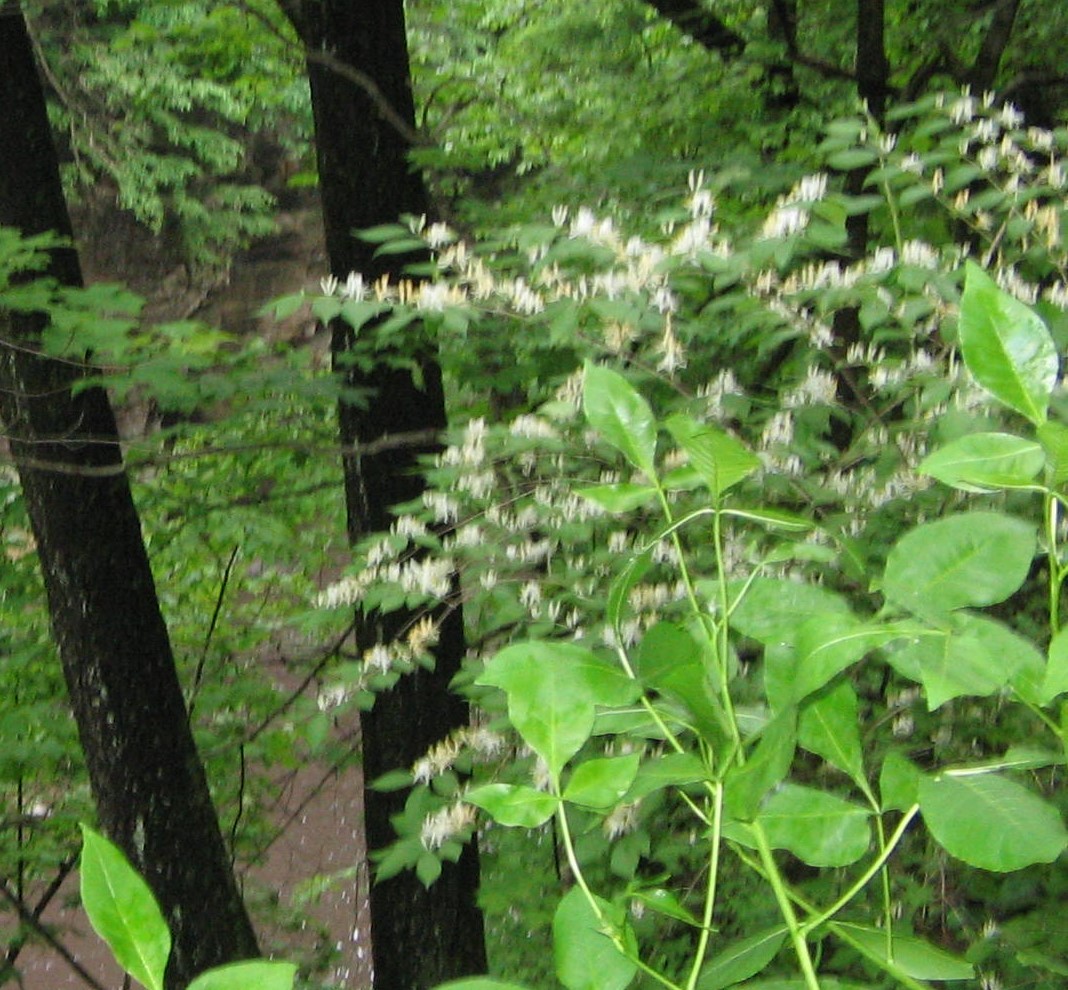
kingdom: Plantae
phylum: Tracheophyta
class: Magnoliopsida
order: Dipsacales
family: Caprifoliaceae
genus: Lonicera
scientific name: Lonicera maackii
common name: Amur honeysuckle
